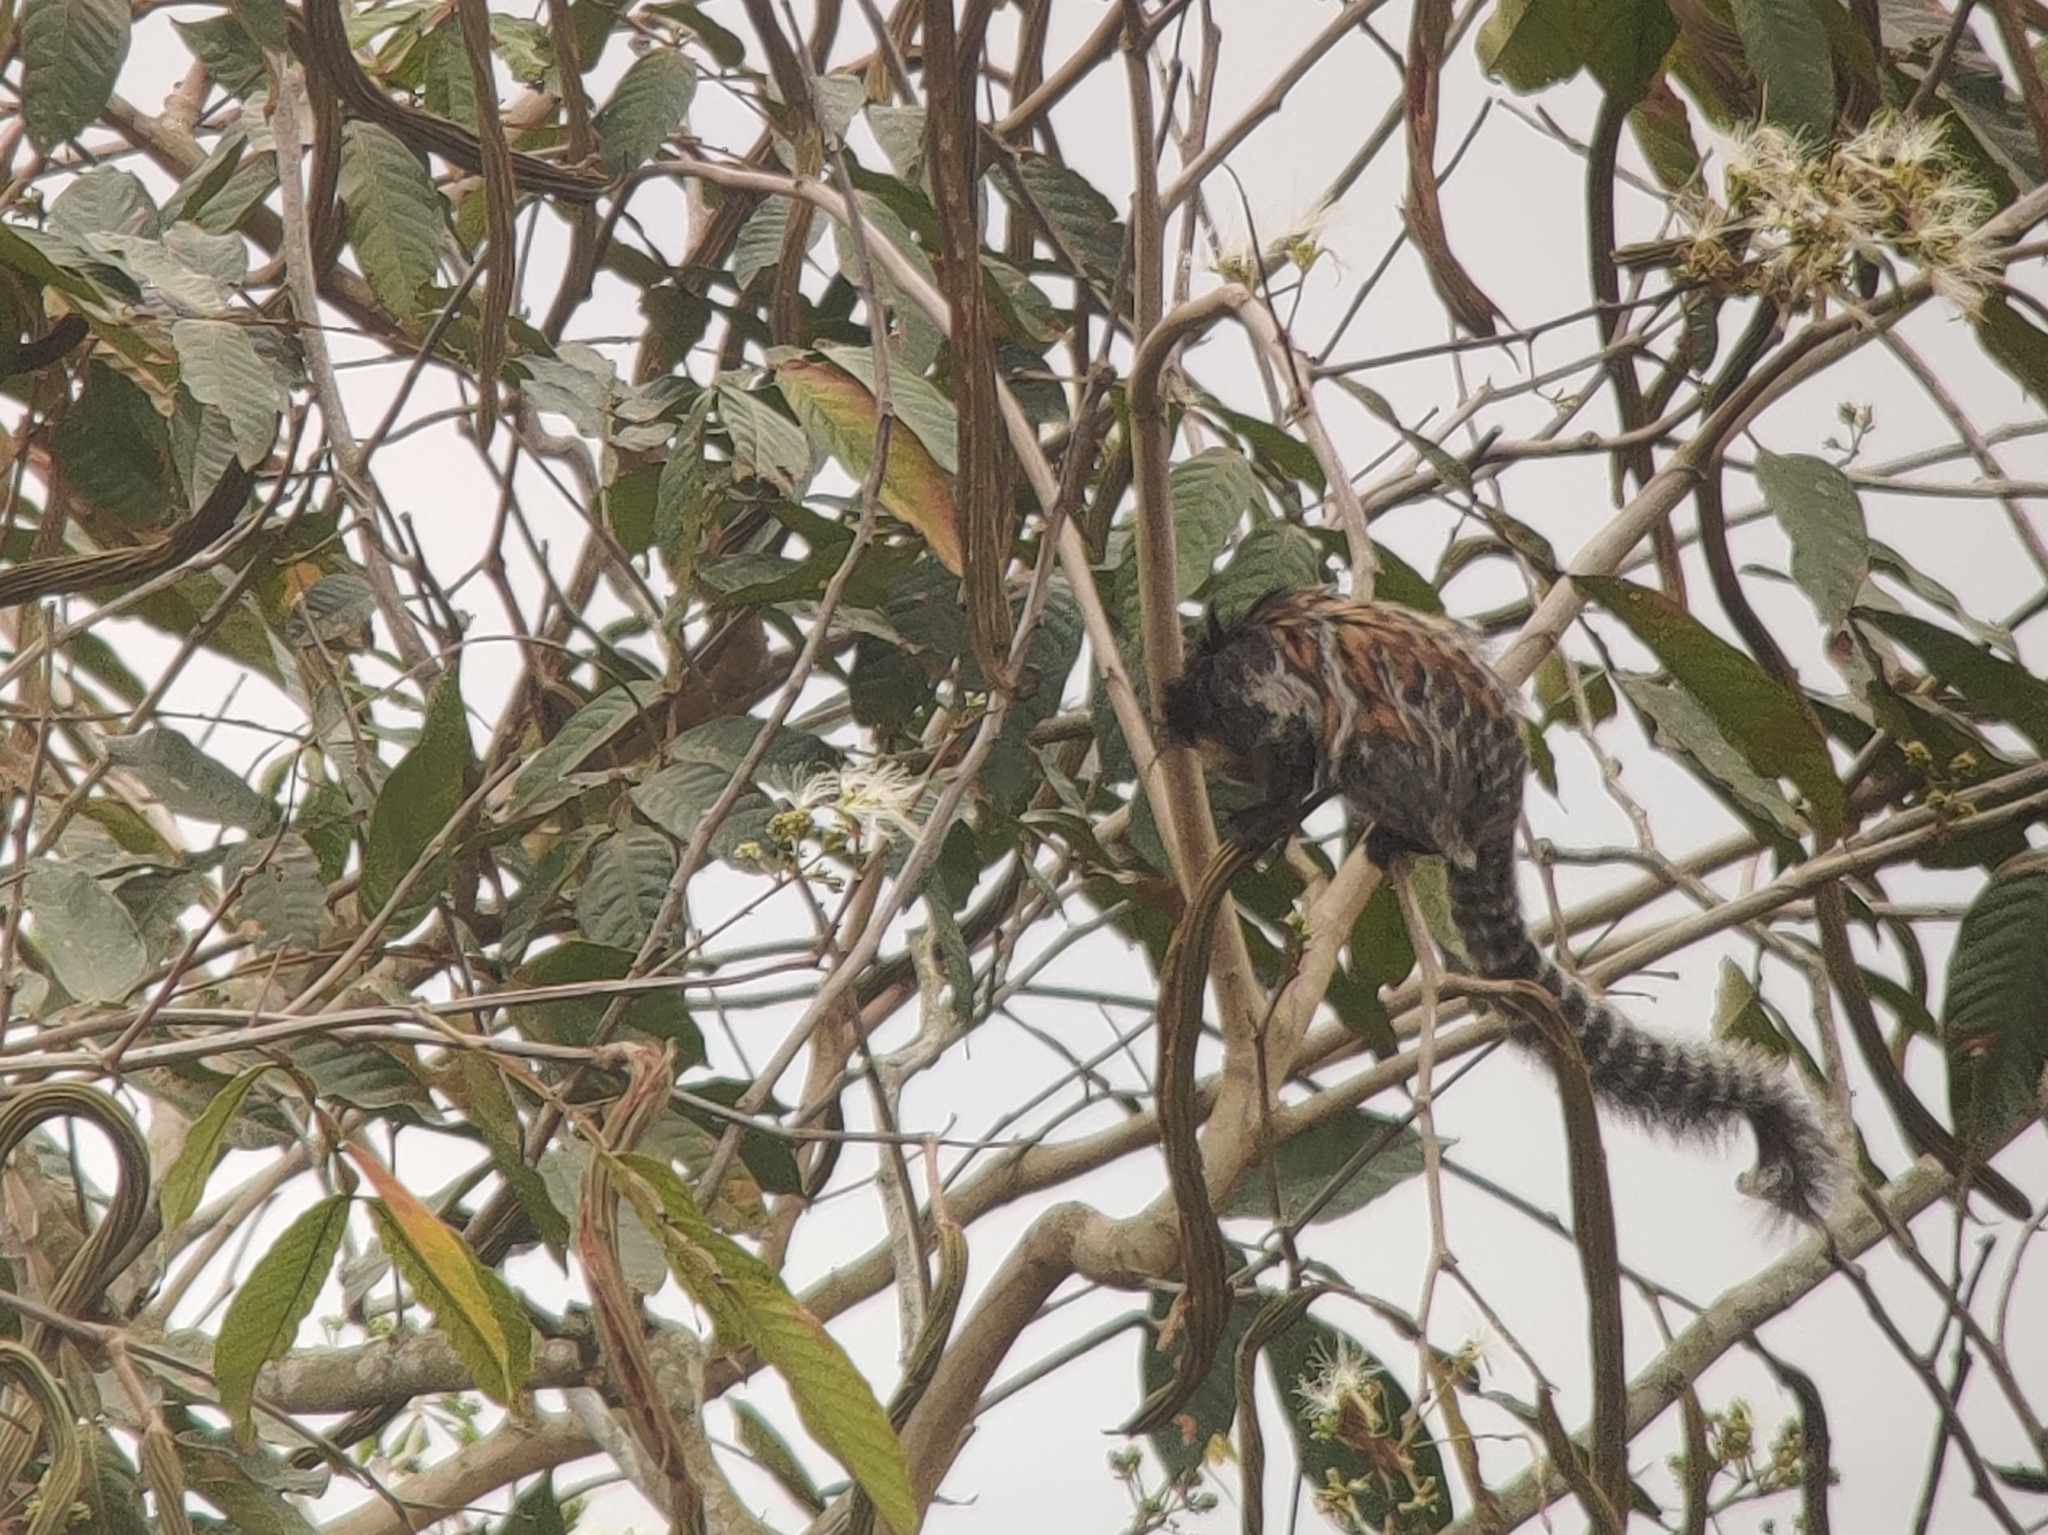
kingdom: Animalia
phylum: Chordata
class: Mammalia
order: Primates
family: Callitrichidae
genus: Callithrix
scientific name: Callithrix geoffroyi
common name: White-headed marmoset
